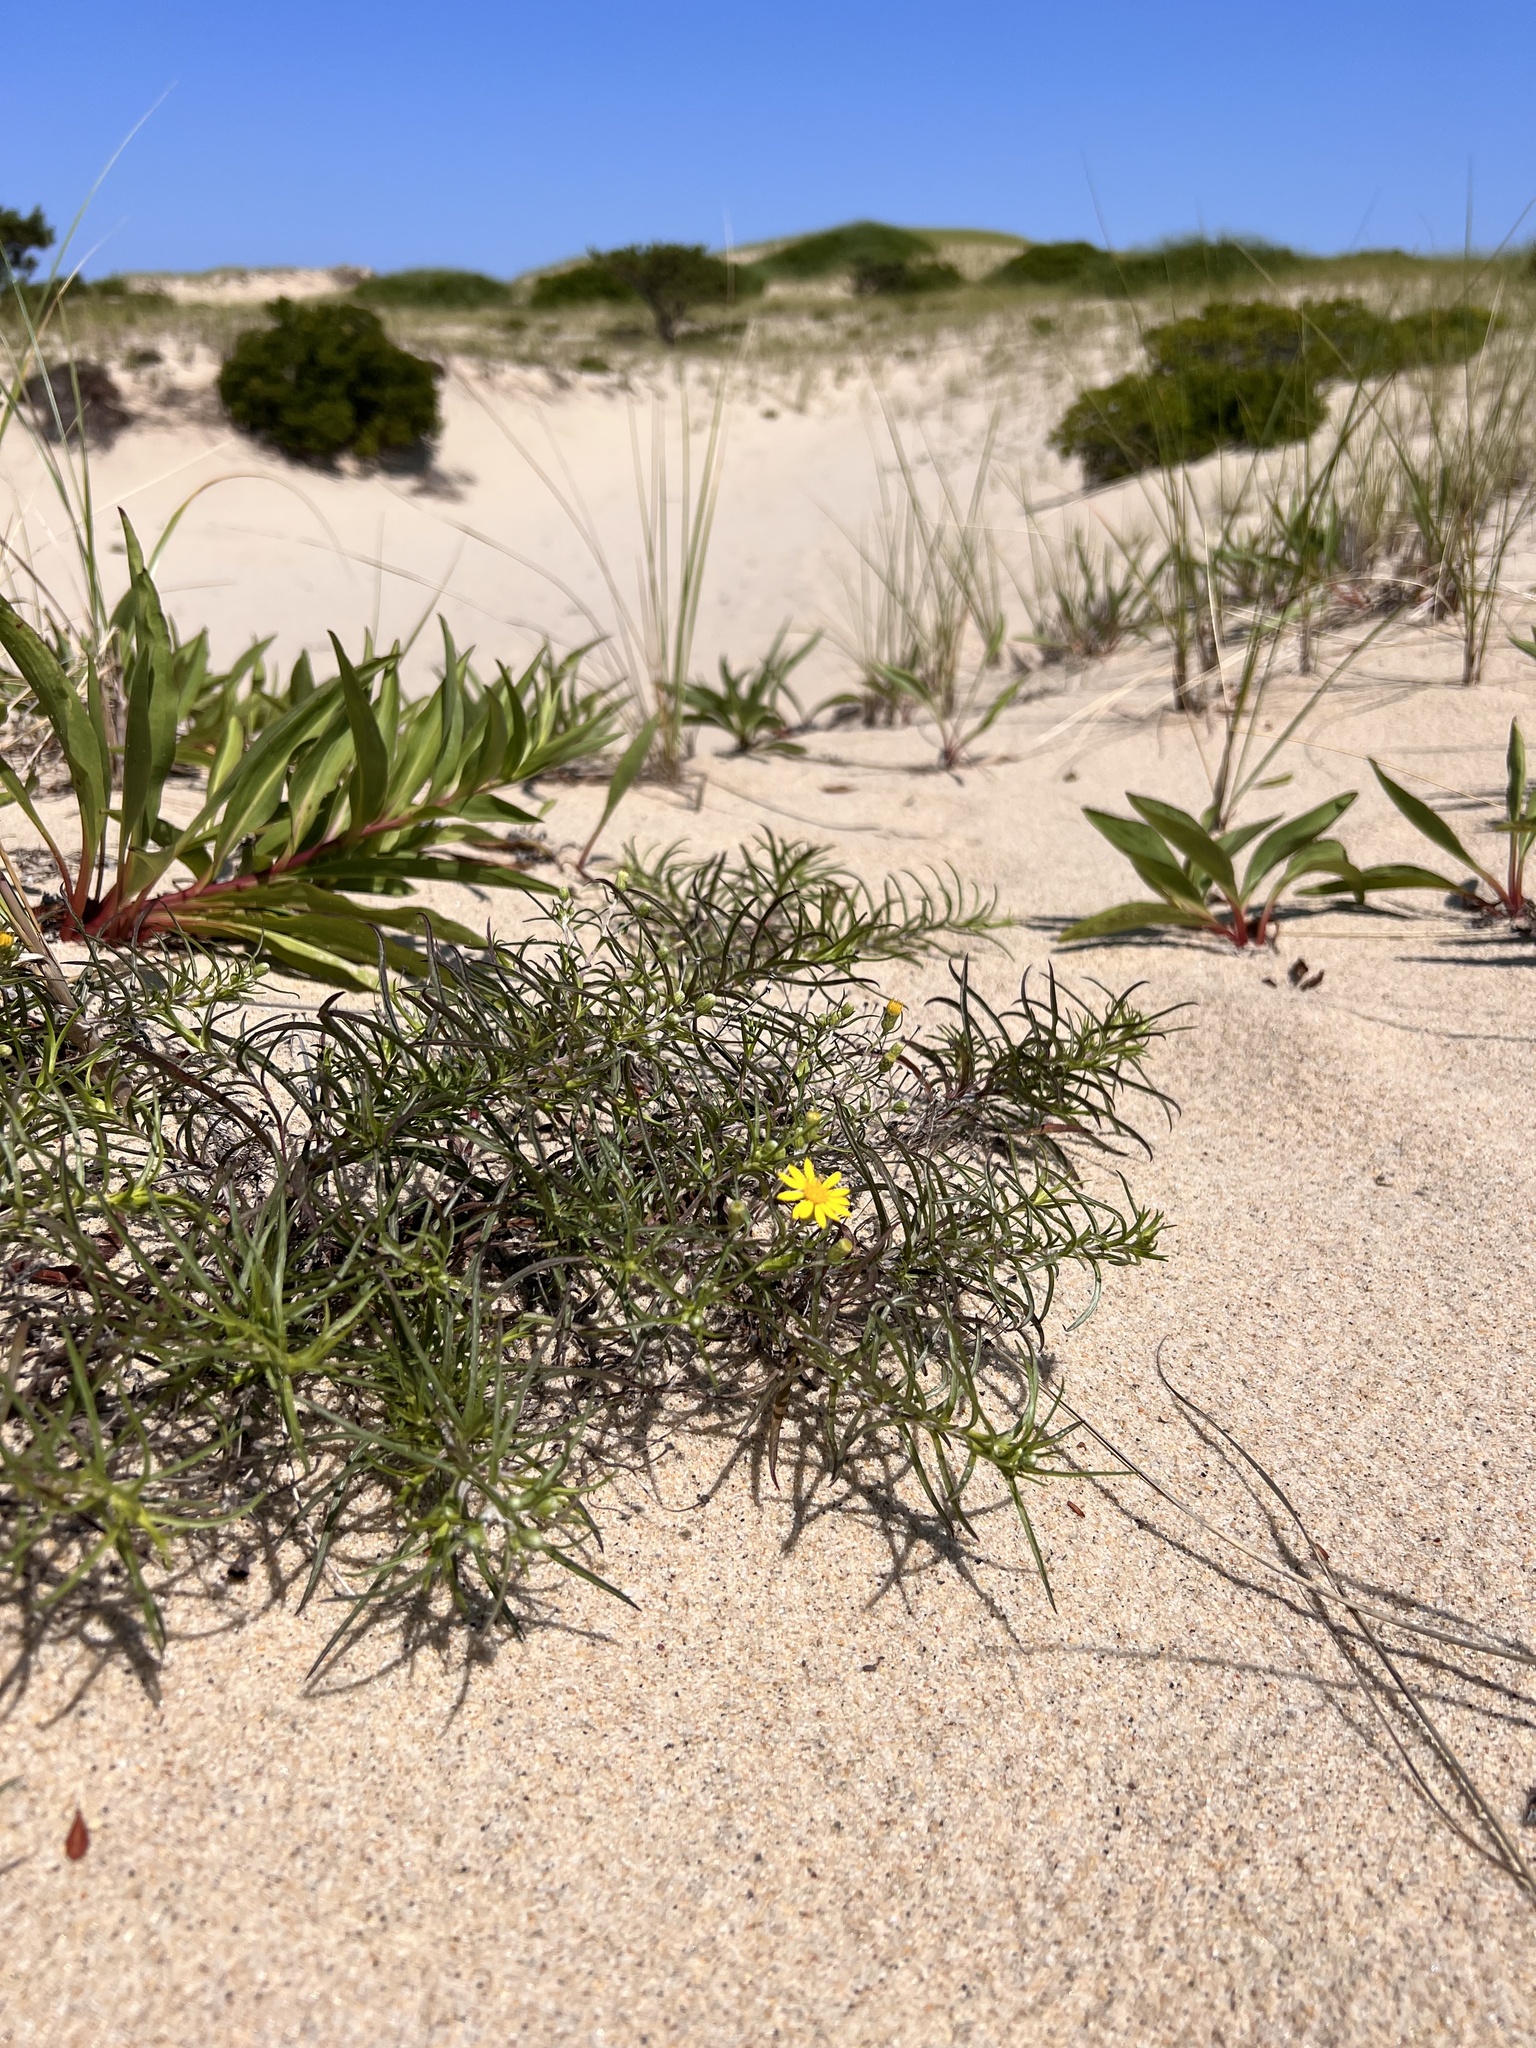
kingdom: Plantae
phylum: Tracheophyta
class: Magnoliopsida
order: Asterales
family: Asteraceae
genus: Pityopsis
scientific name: Pityopsis falcata
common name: Sickle-leaved goldenaster
